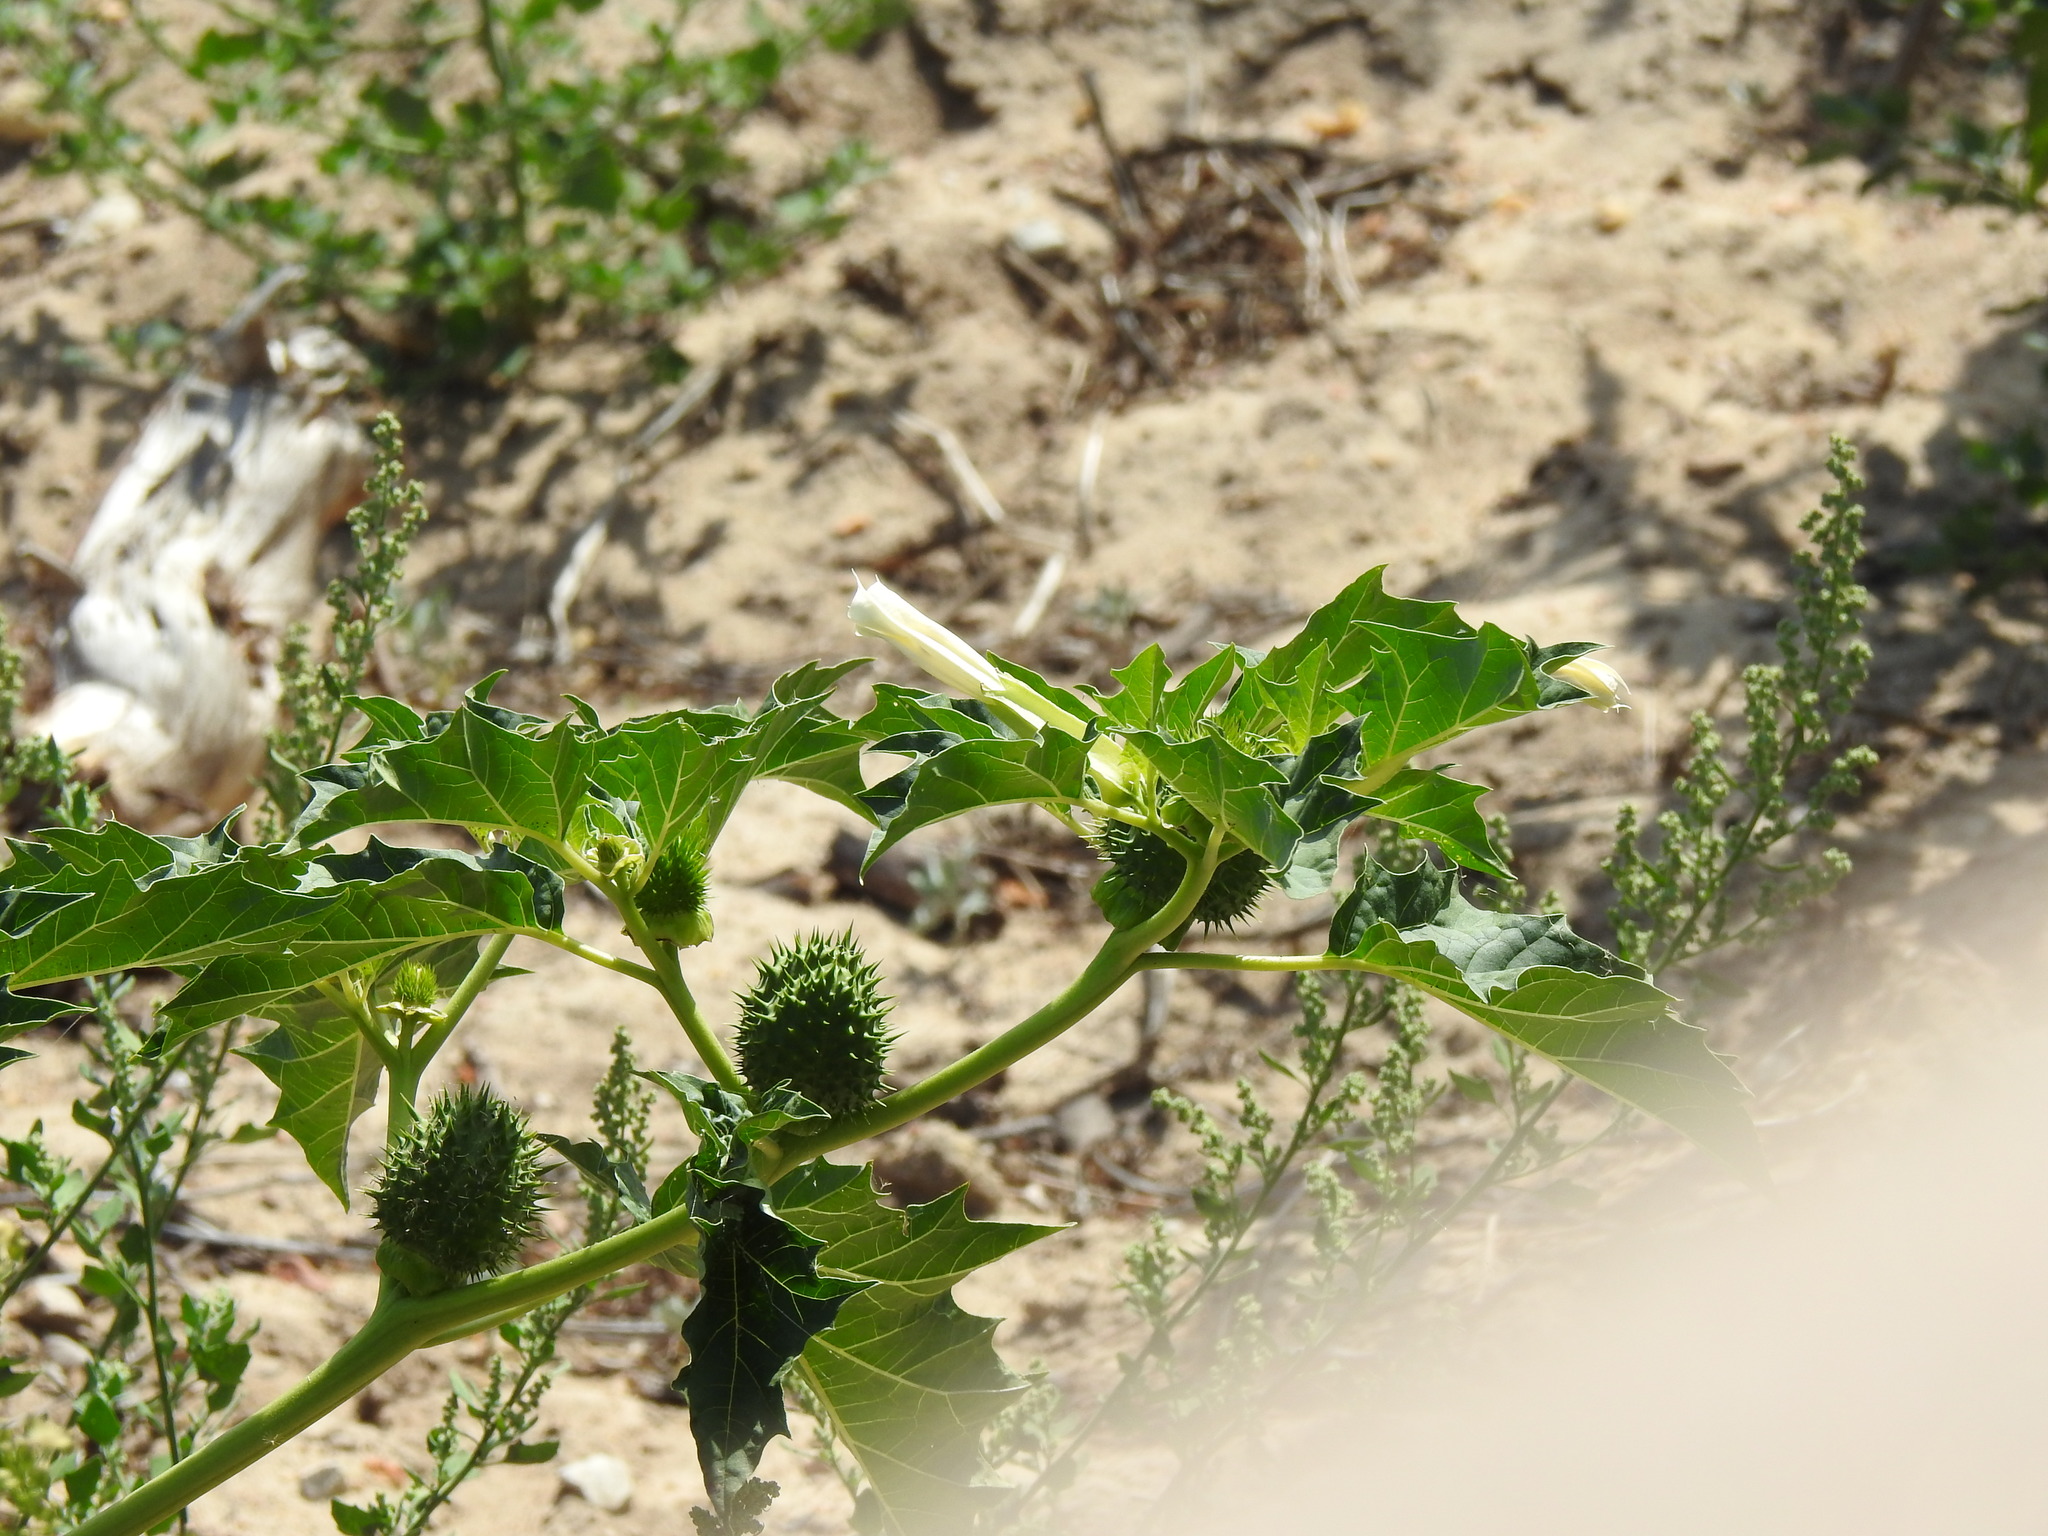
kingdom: Plantae
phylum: Tracheophyta
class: Magnoliopsida
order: Solanales
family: Solanaceae
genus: Datura
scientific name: Datura stramonium
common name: Thorn-apple
